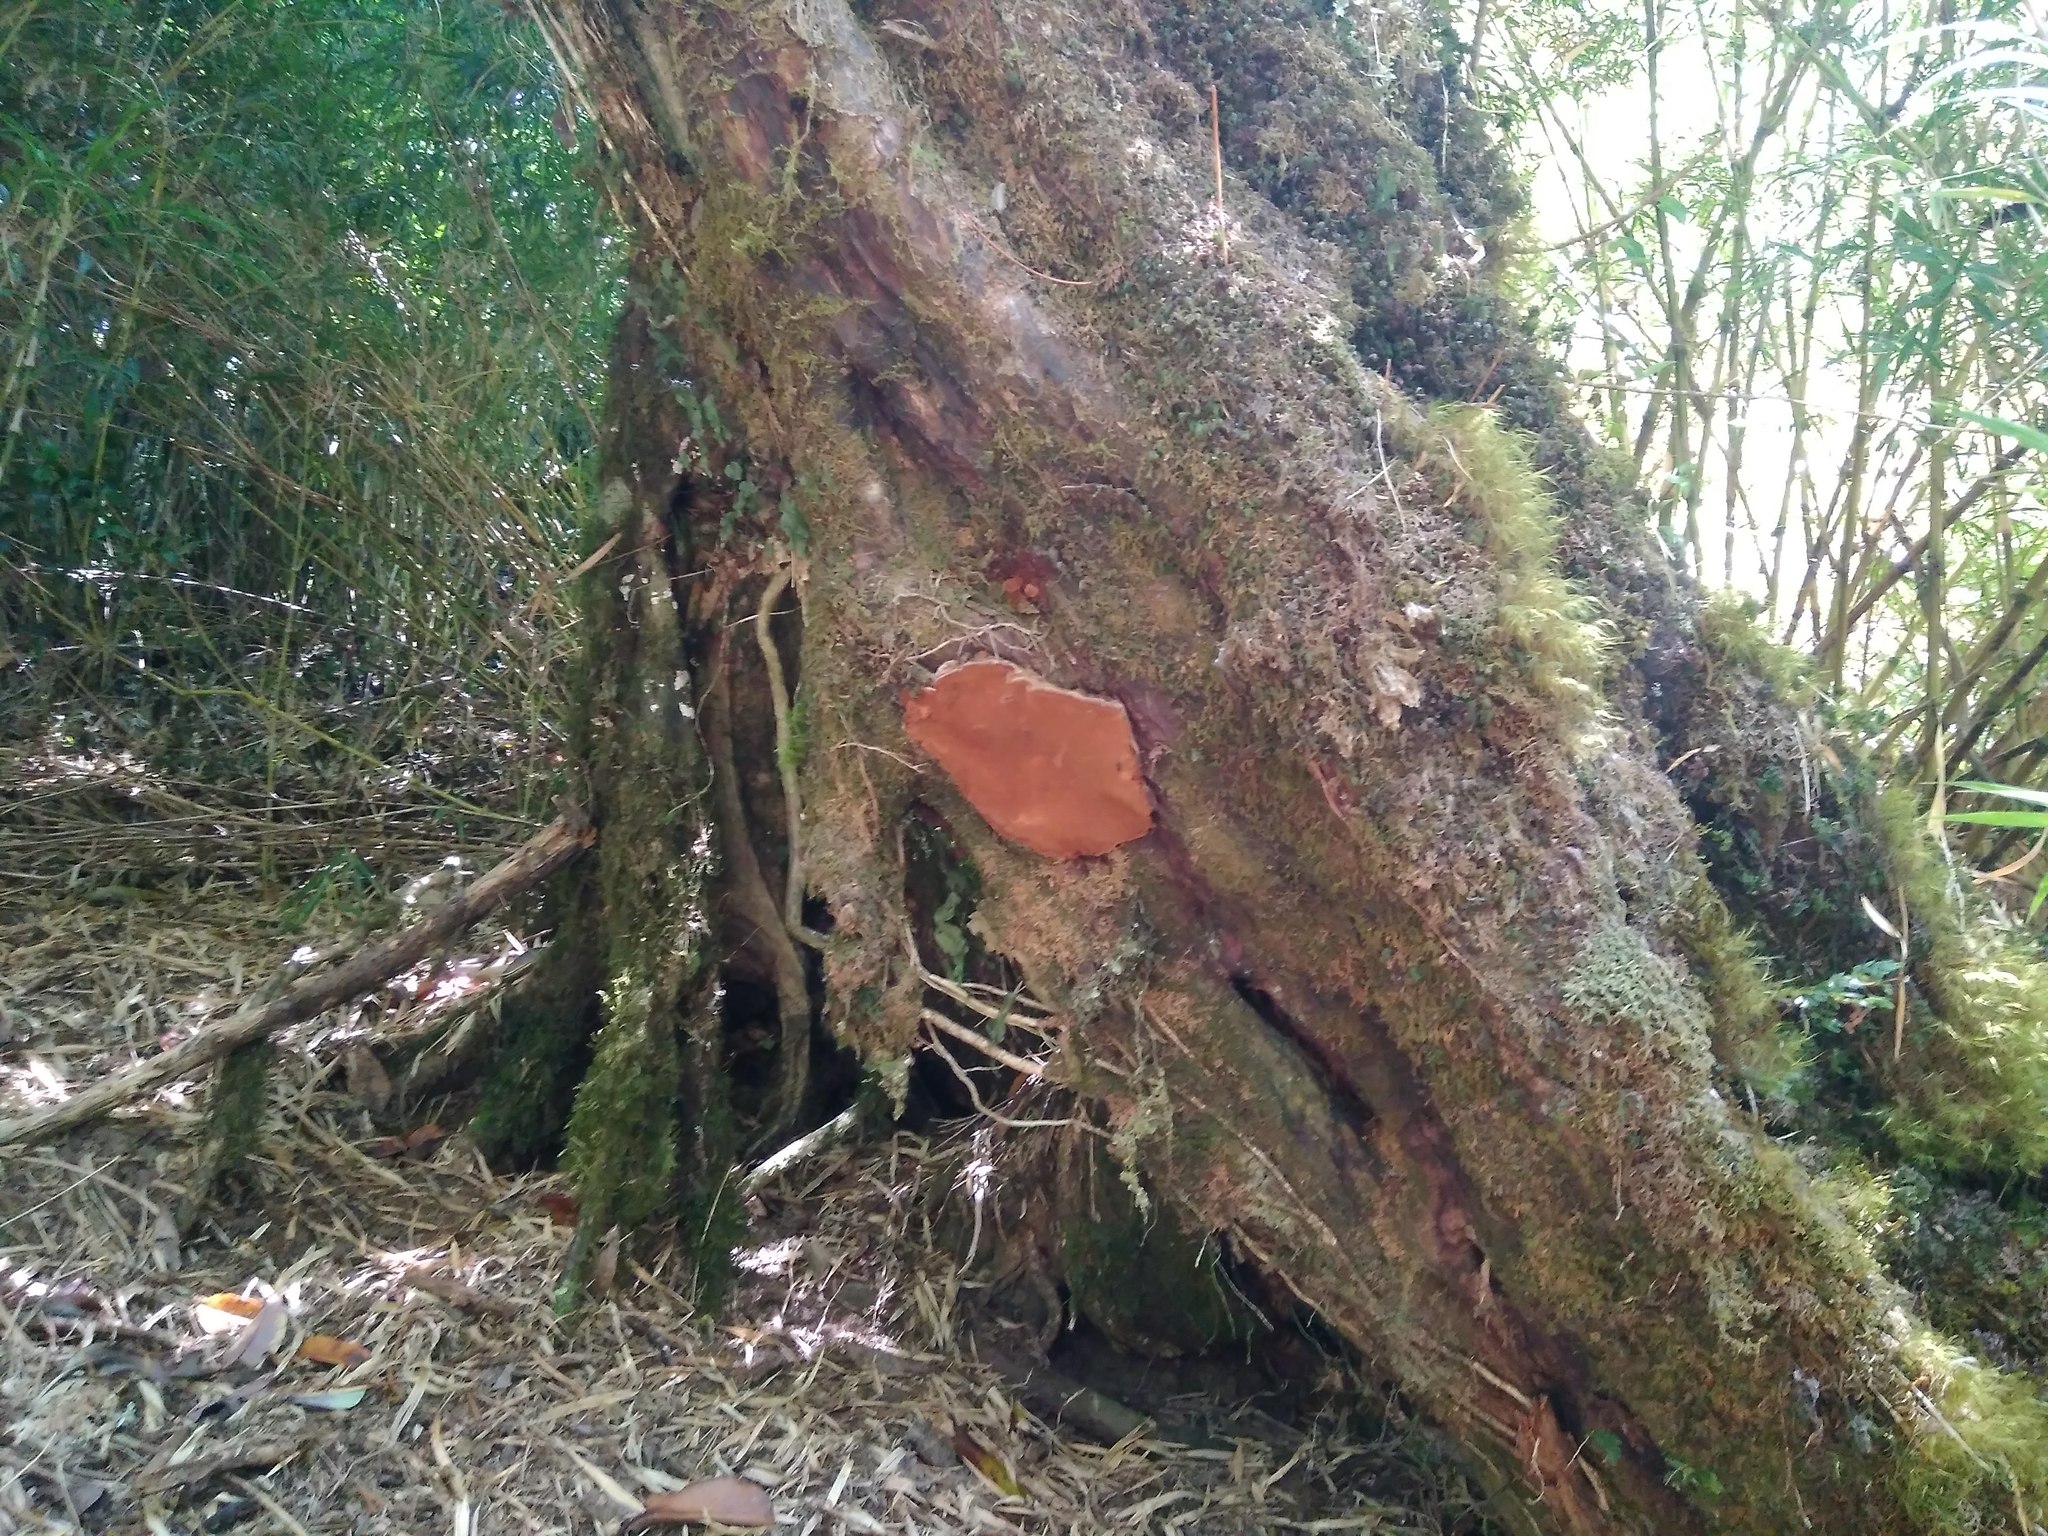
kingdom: Fungi
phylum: Basidiomycota
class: Agaricomycetes
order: Hymenochaetales
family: Hymenochaetaceae
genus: Fuscoporia
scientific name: Fuscoporia senex
